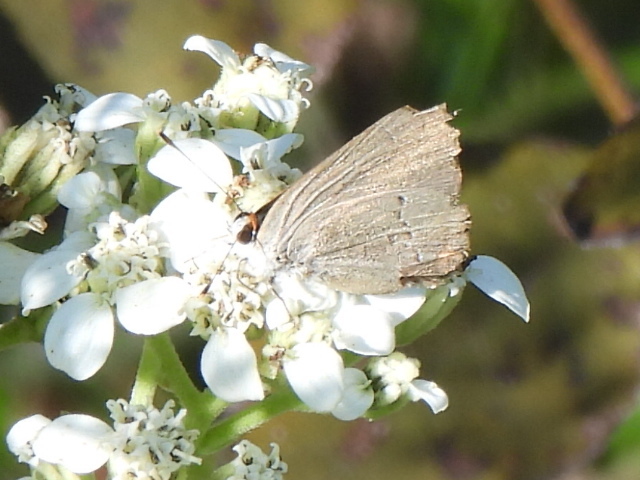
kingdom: Animalia
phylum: Arthropoda
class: Insecta
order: Lepidoptera
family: Lycaenidae
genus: Strymon
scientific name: Strymon melinus
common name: Gray hairstreak
